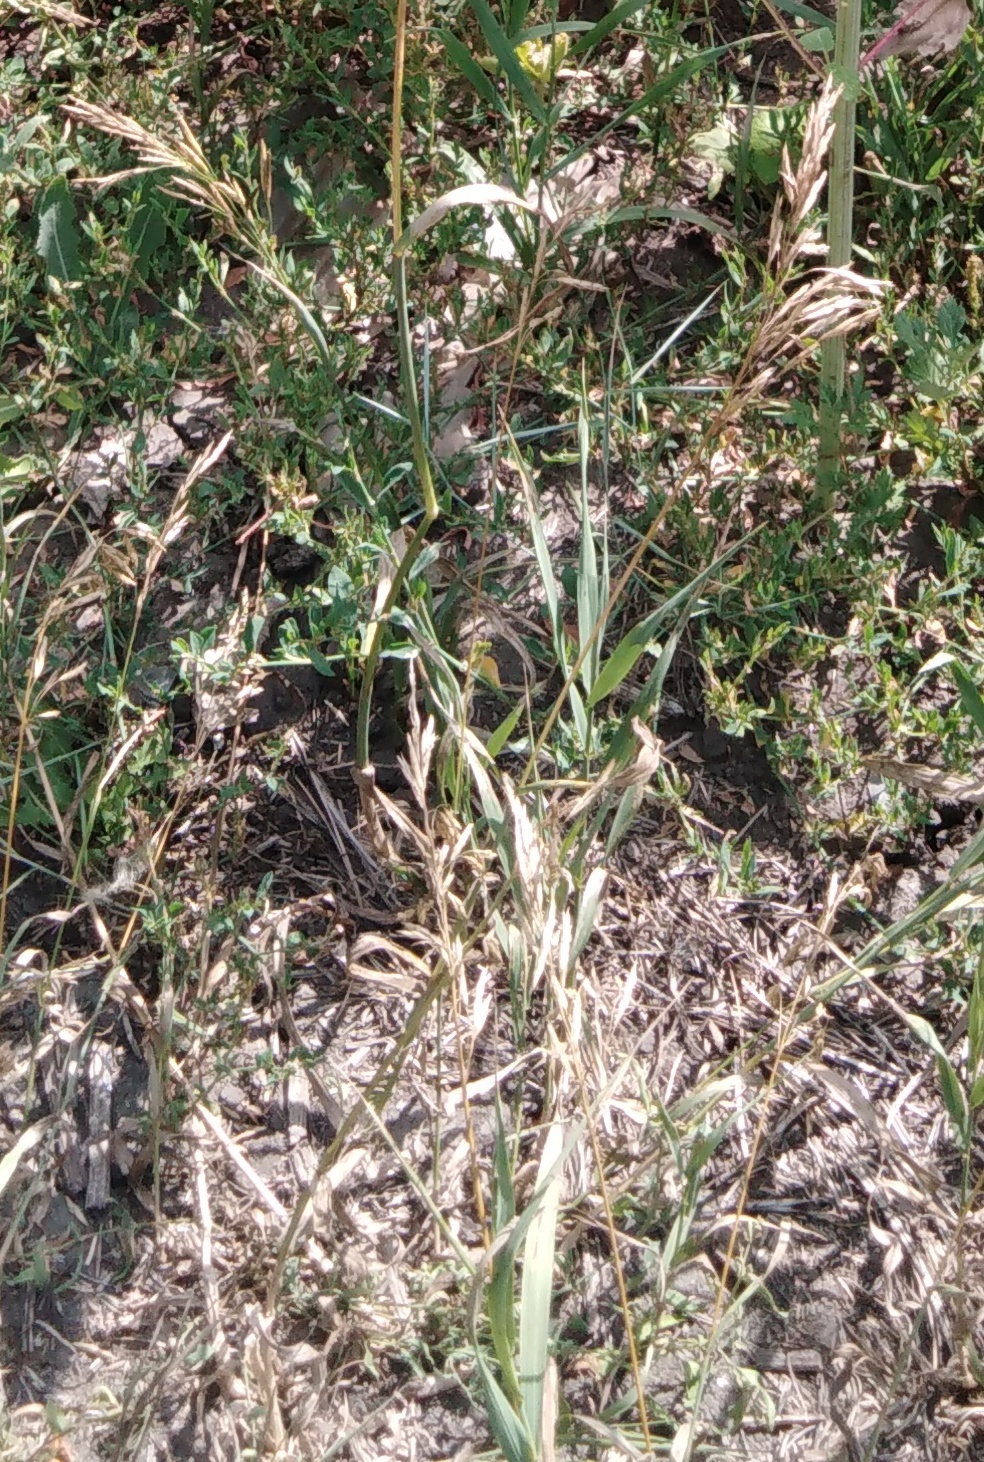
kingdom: Plantae
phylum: Tracheophyta
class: Liliopsida
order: Poales
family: Poaceae
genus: Bromus
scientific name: Bromus inermis
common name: Smooth brome
